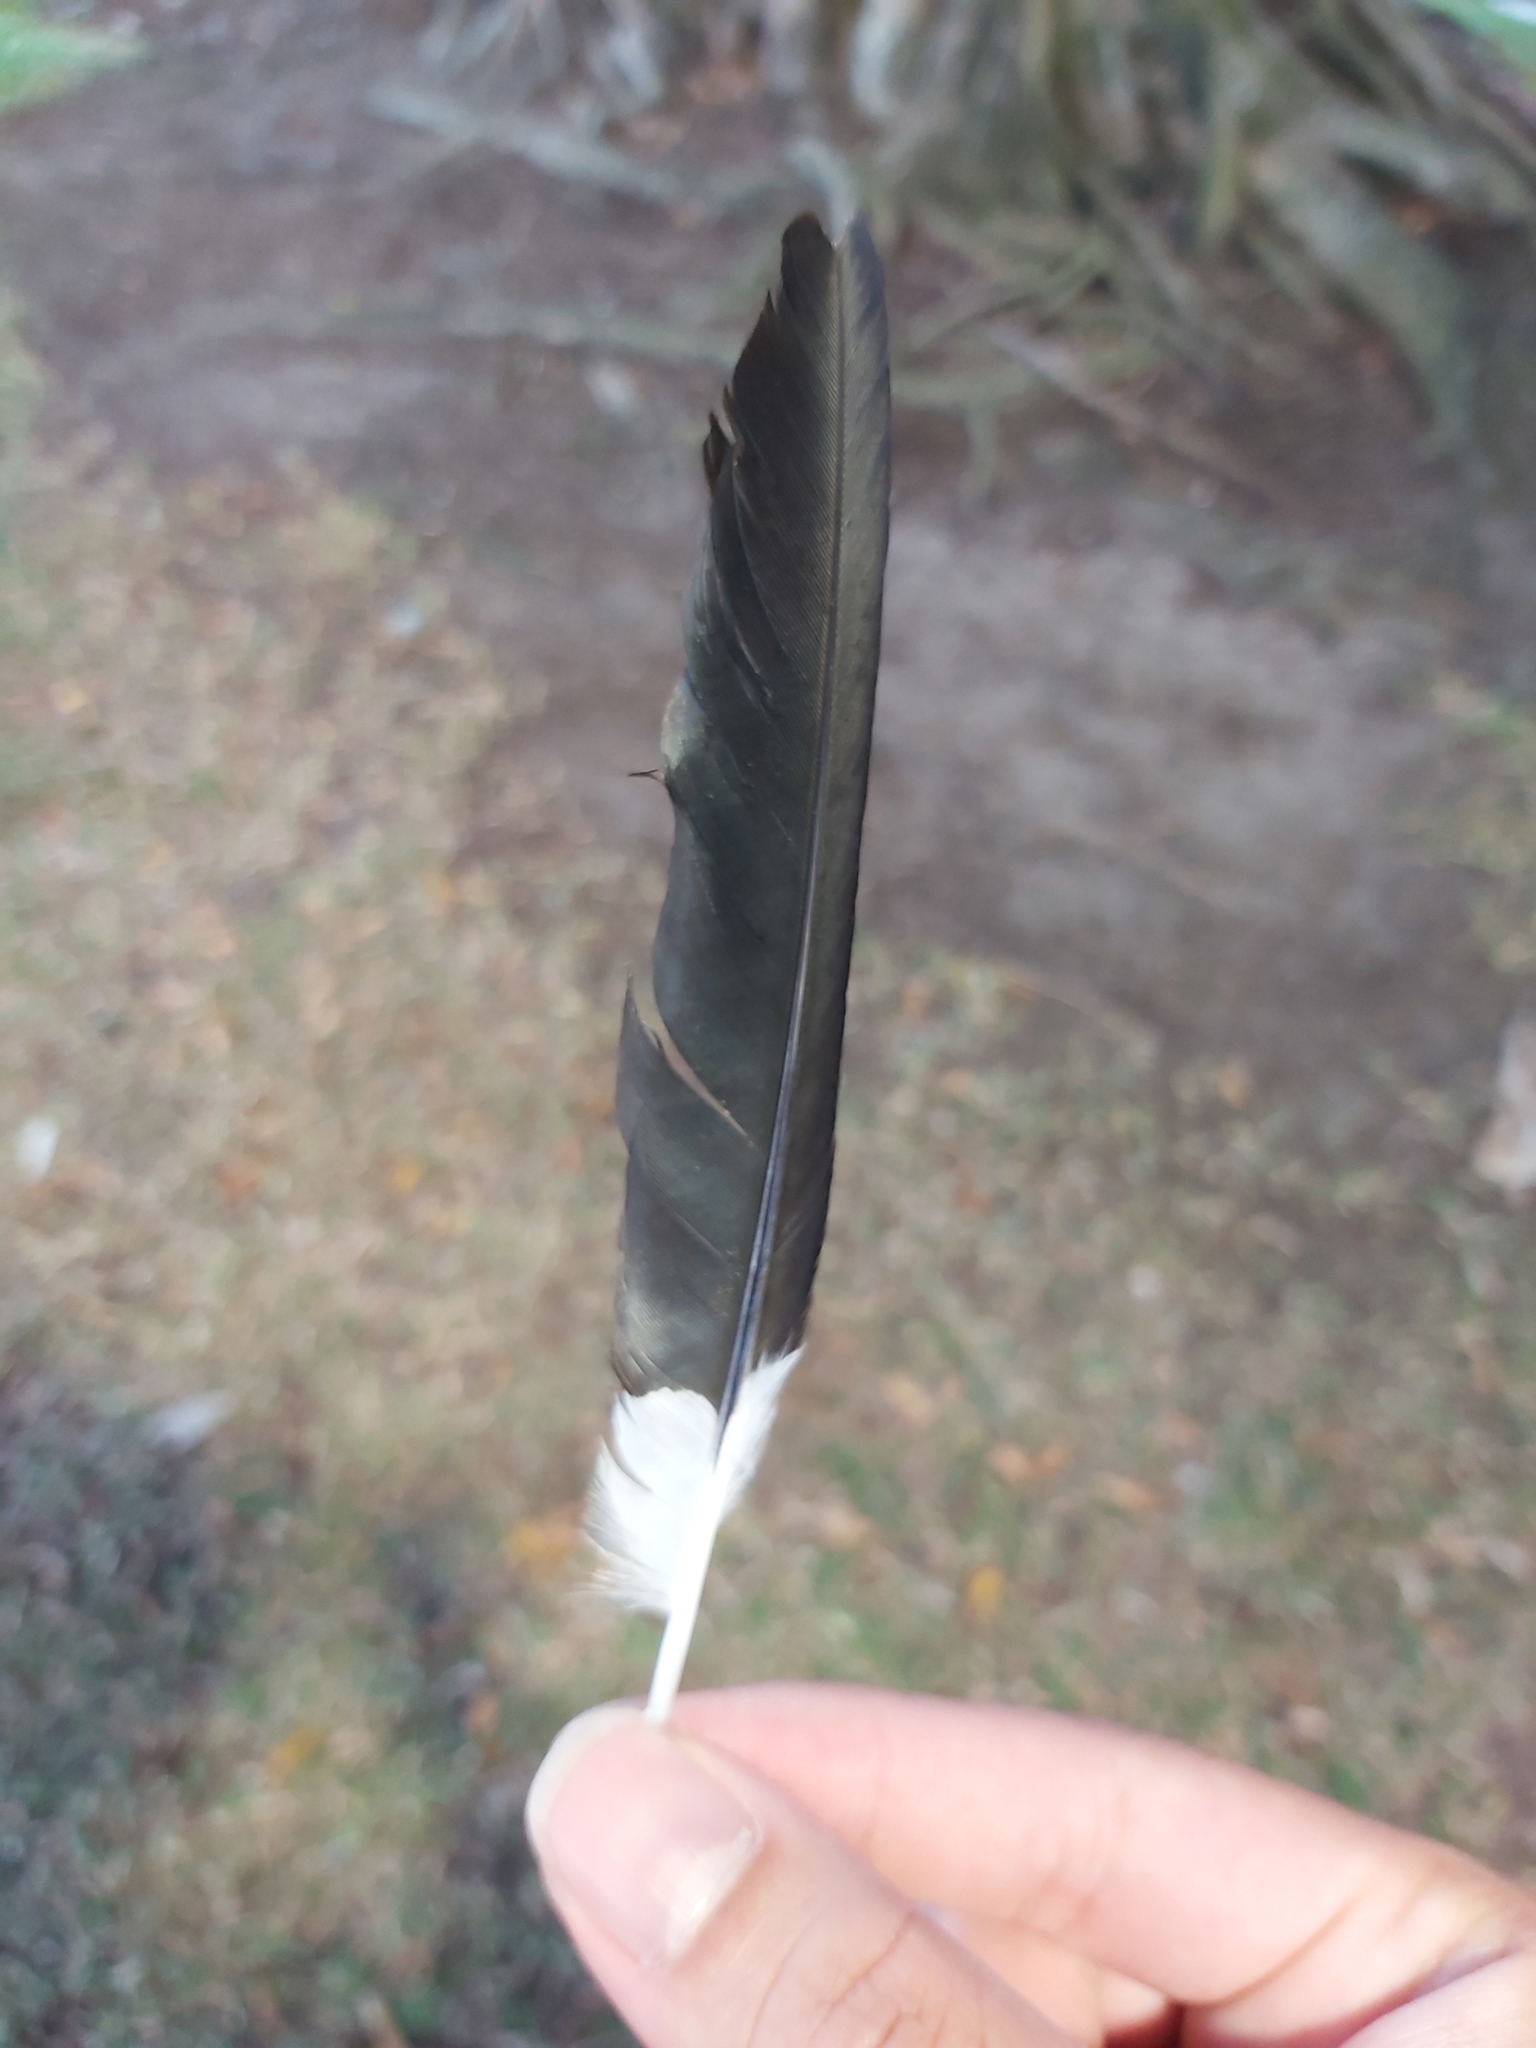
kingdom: Animalia
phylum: Chordata
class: Aves
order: Passeriformes
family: Monarchidae
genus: Grallina
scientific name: Grallina cyanoleuca
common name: Magpie-lark
